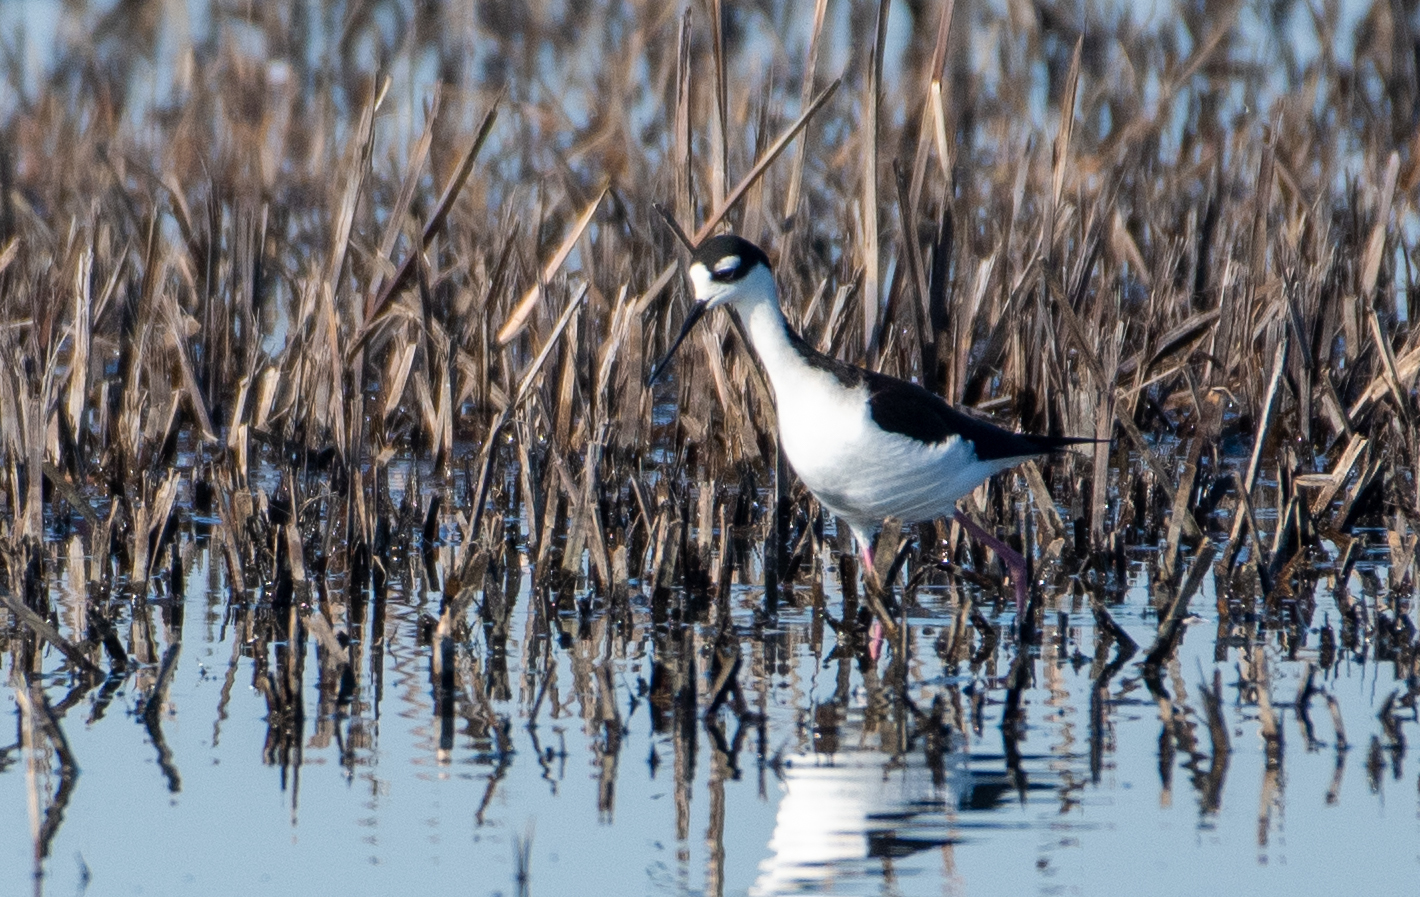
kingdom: Animalia
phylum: Chordata
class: Aves
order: Charadriiformes
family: Recurvirostridae
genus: Himantopus
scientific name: Himantopus mexicanus
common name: Black-necked stilt
